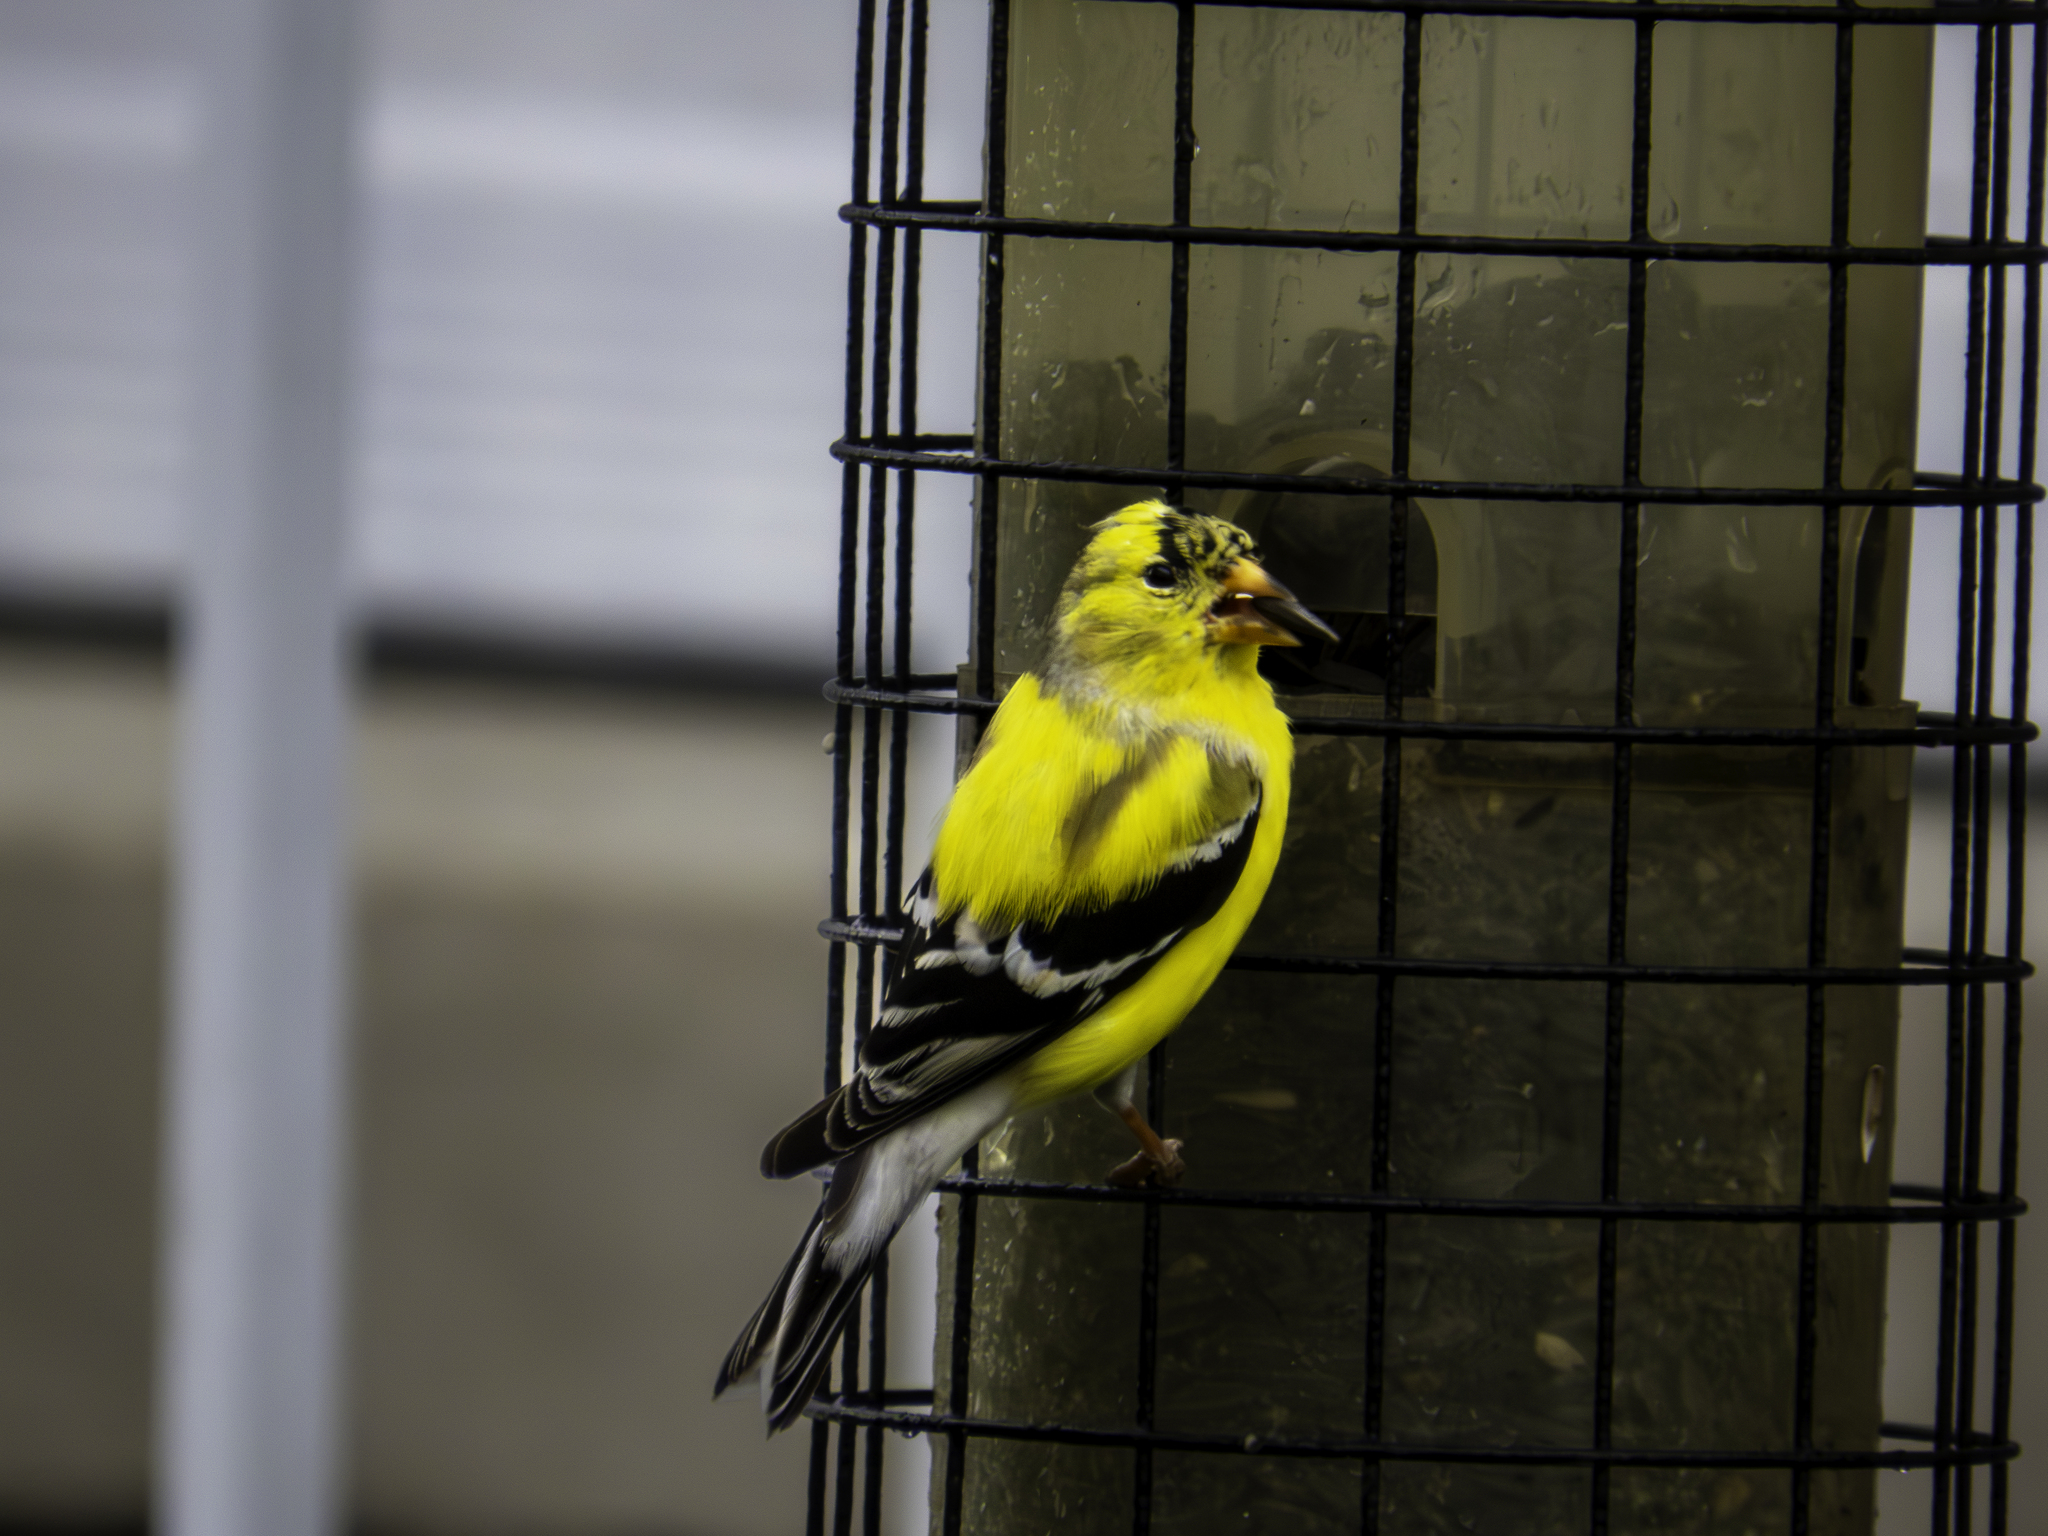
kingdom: Animalia
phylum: Chordata
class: Aves
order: Passeriformes
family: Fringillidae
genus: Spinus
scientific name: Spinus tristis
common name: American goldfinch
